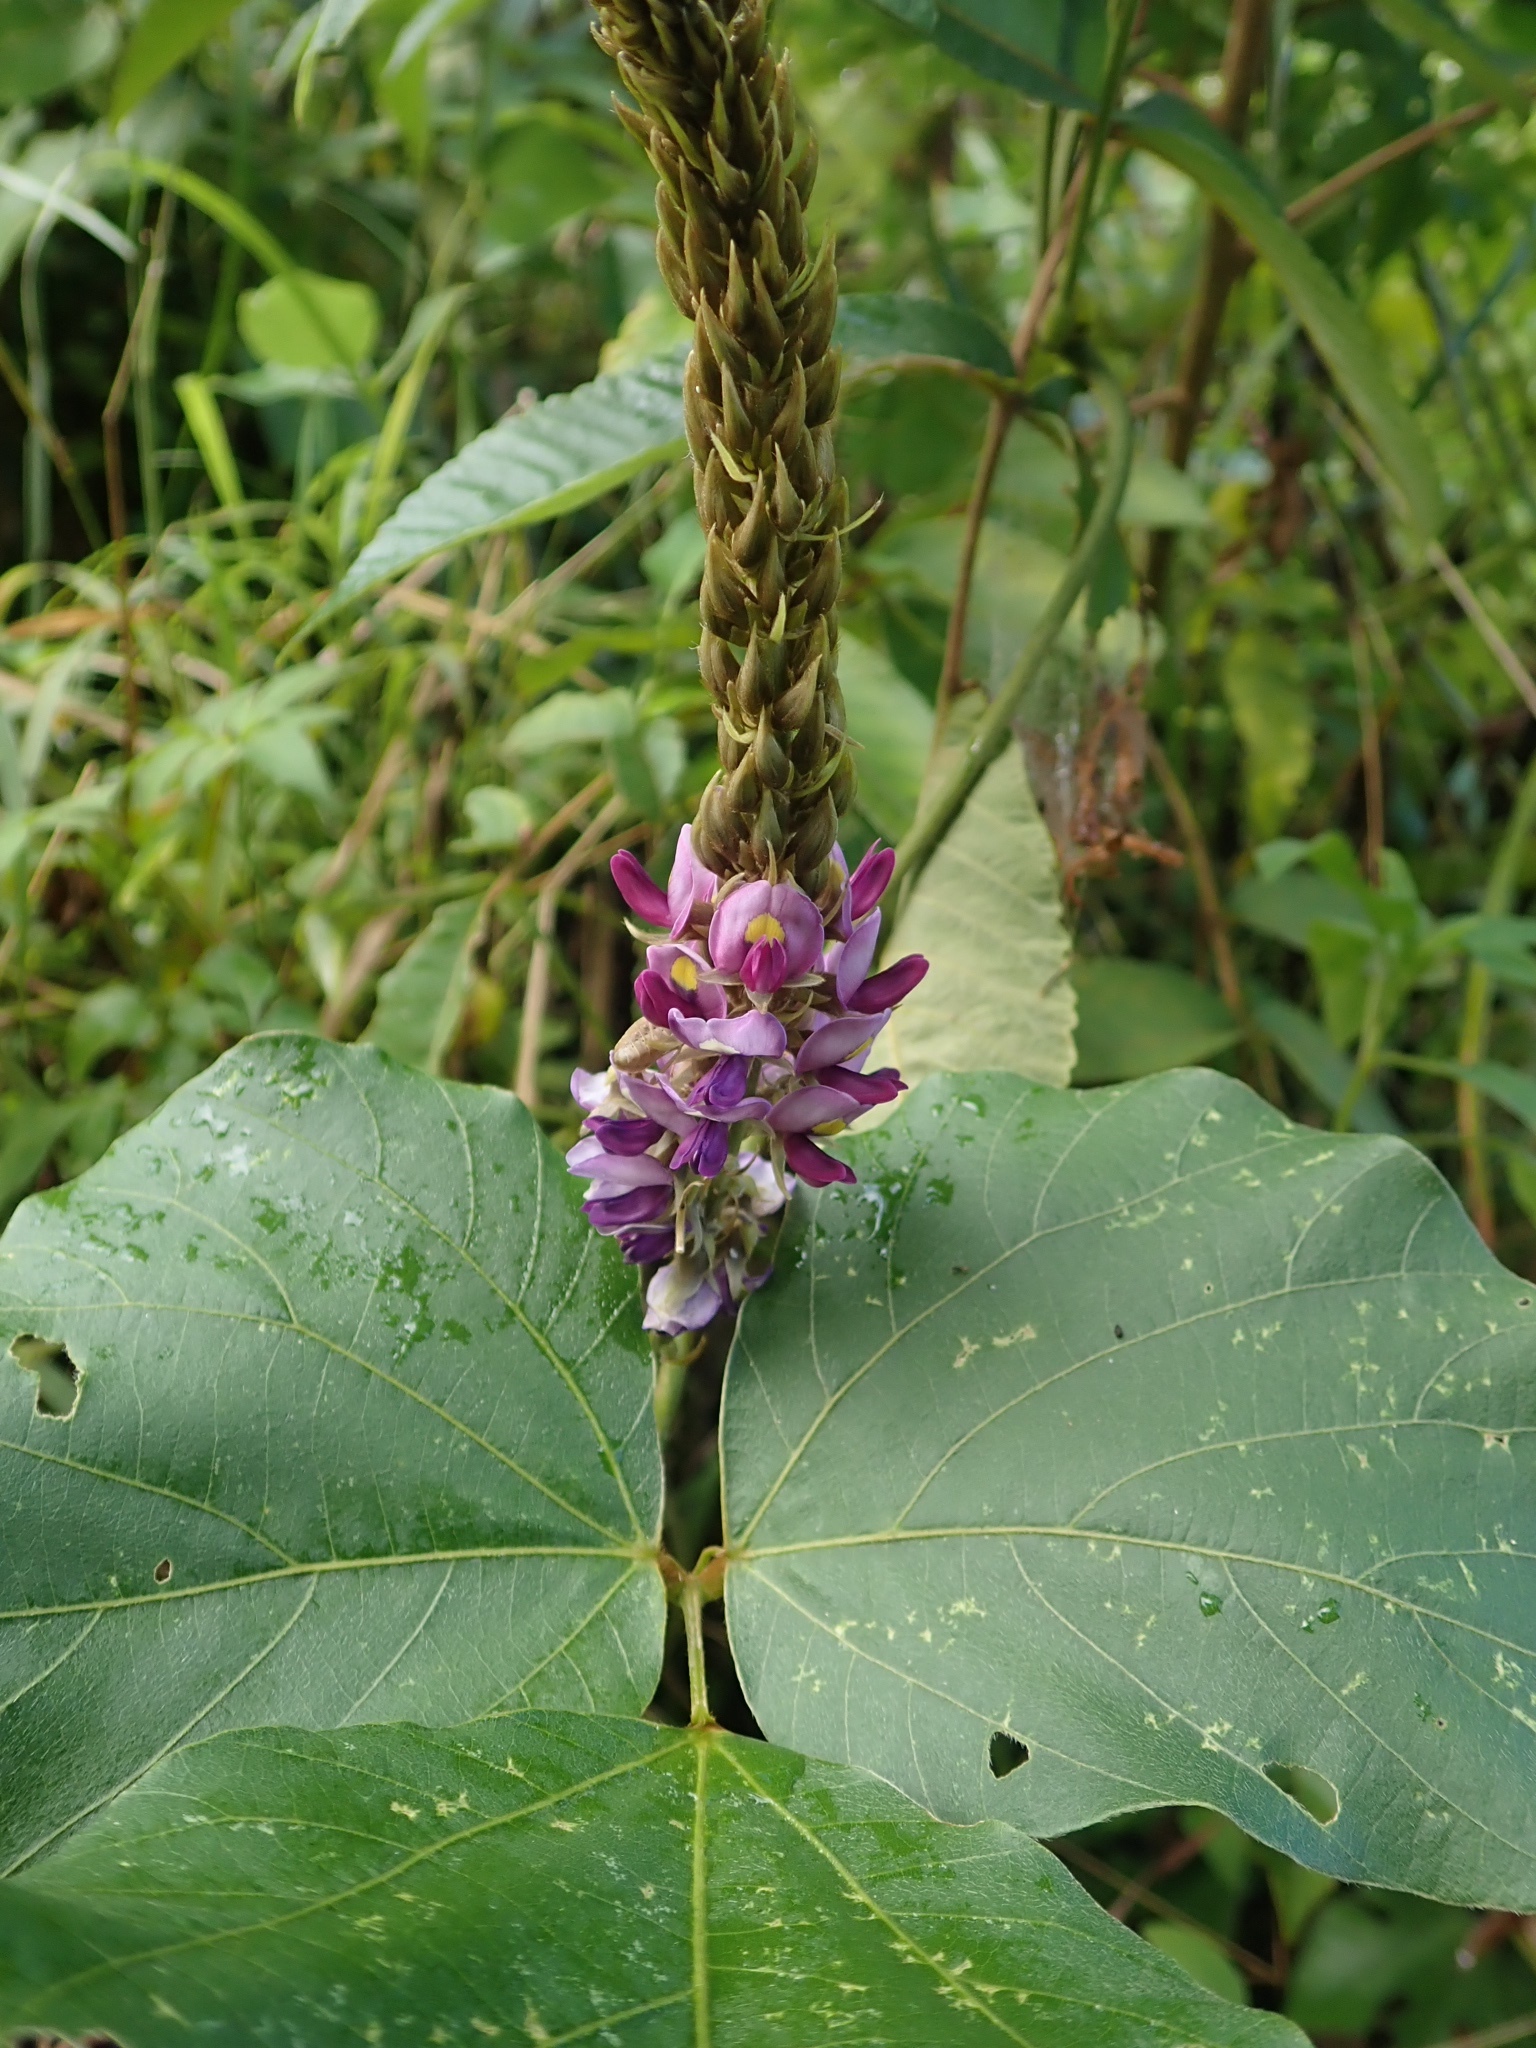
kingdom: Plantae
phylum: Tracheophyta
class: Magnoliopsida
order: Fabales
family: Fabaceae
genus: Pueraria
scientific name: Pueraria montana
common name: Kudzu
